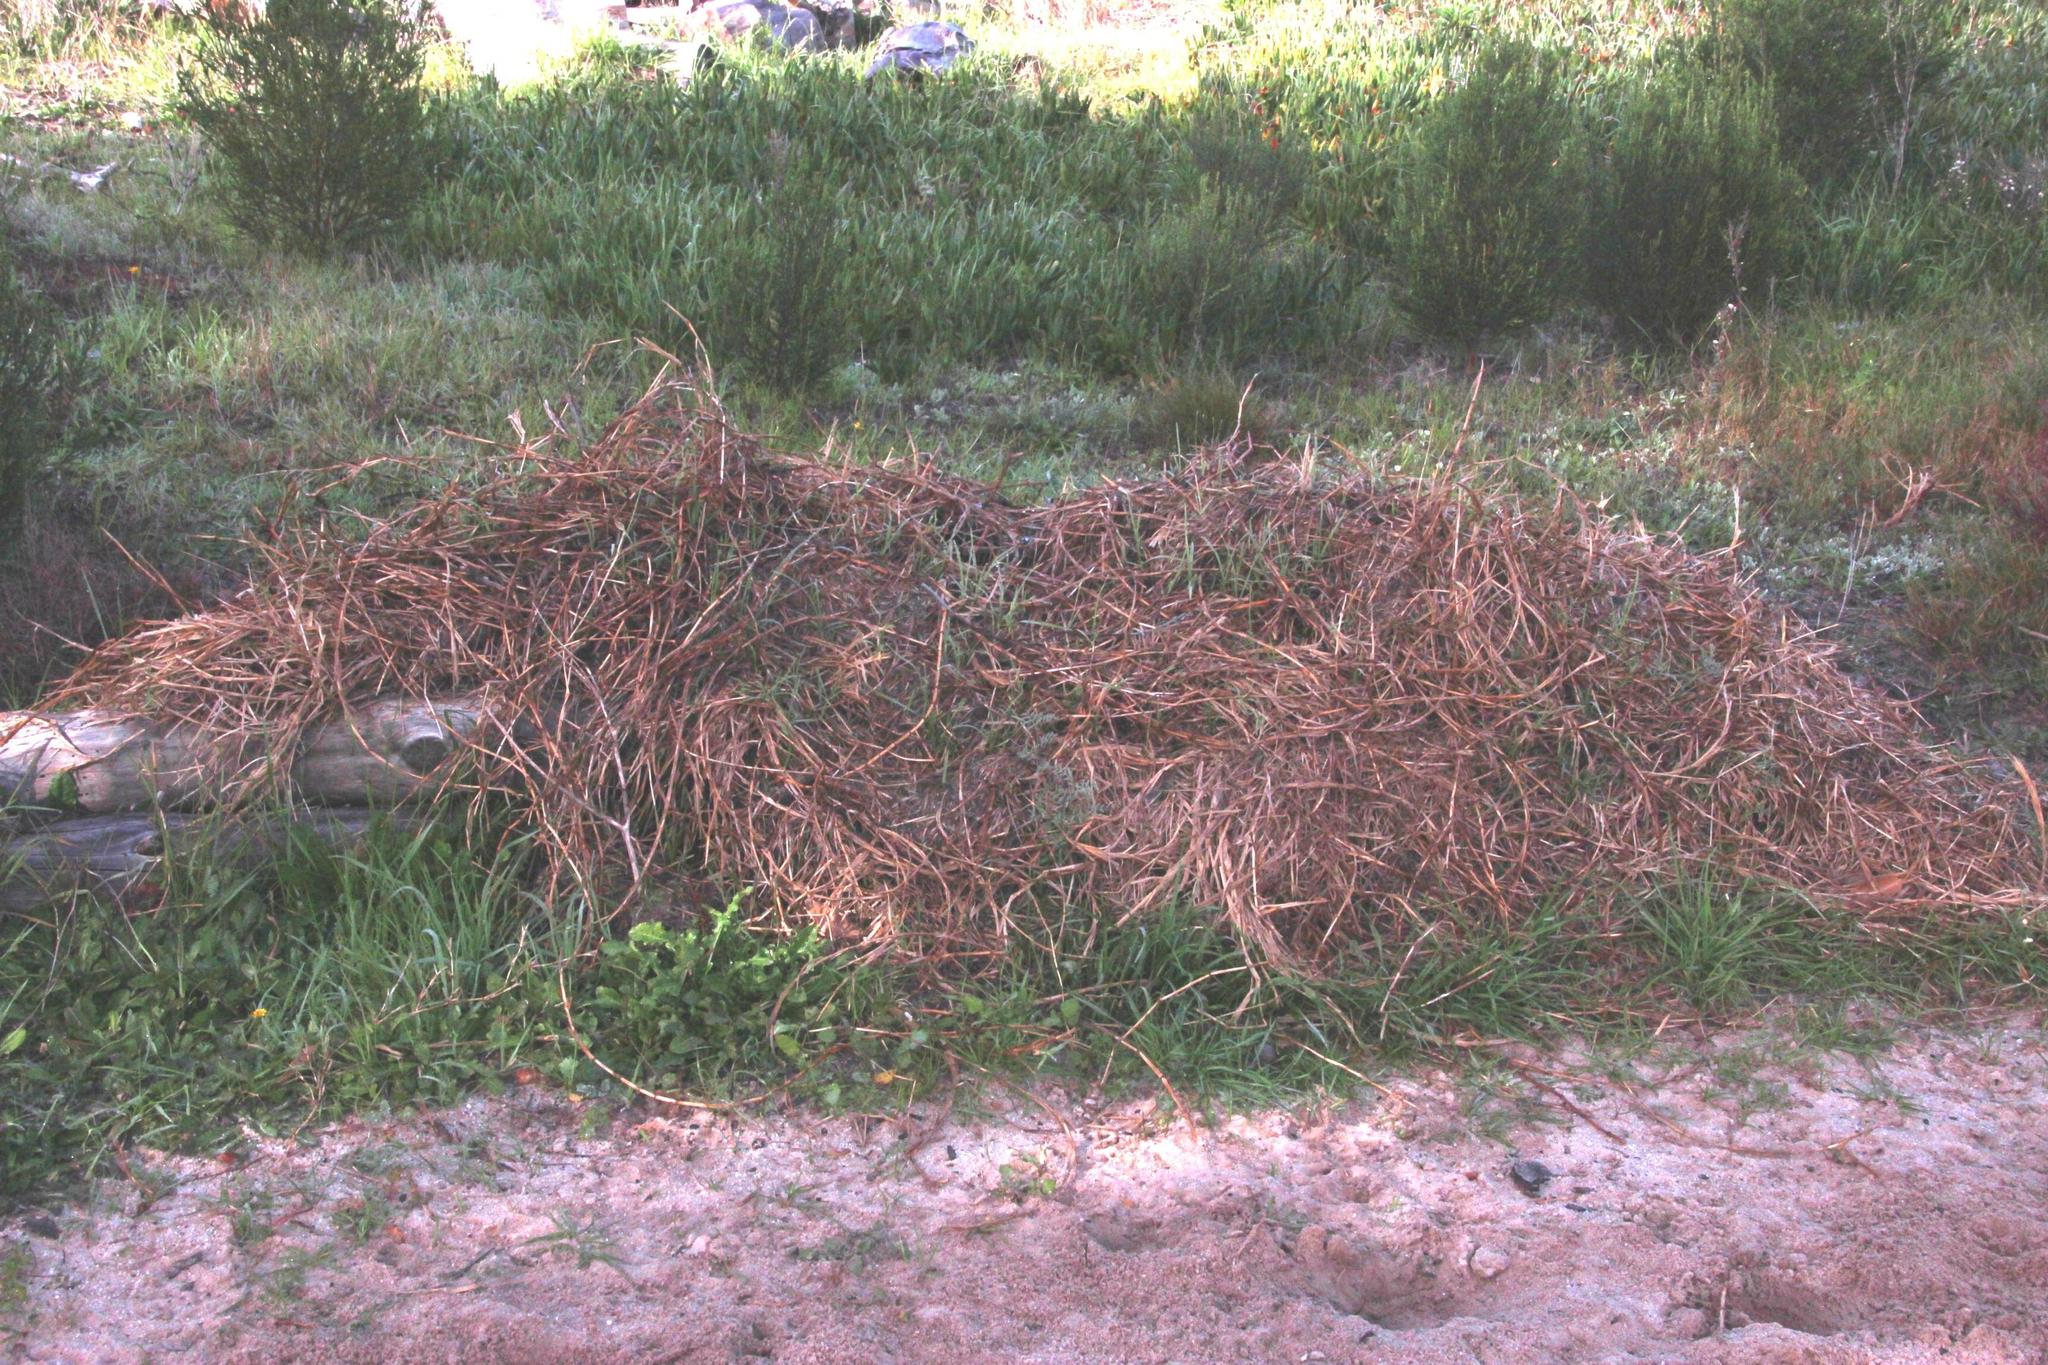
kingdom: Plantae
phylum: Tracheophyta
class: Liliopsida
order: Poales
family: Poaceae
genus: Cenchrus
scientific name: Cenchrus clandestinus
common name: Kikuyugrass
